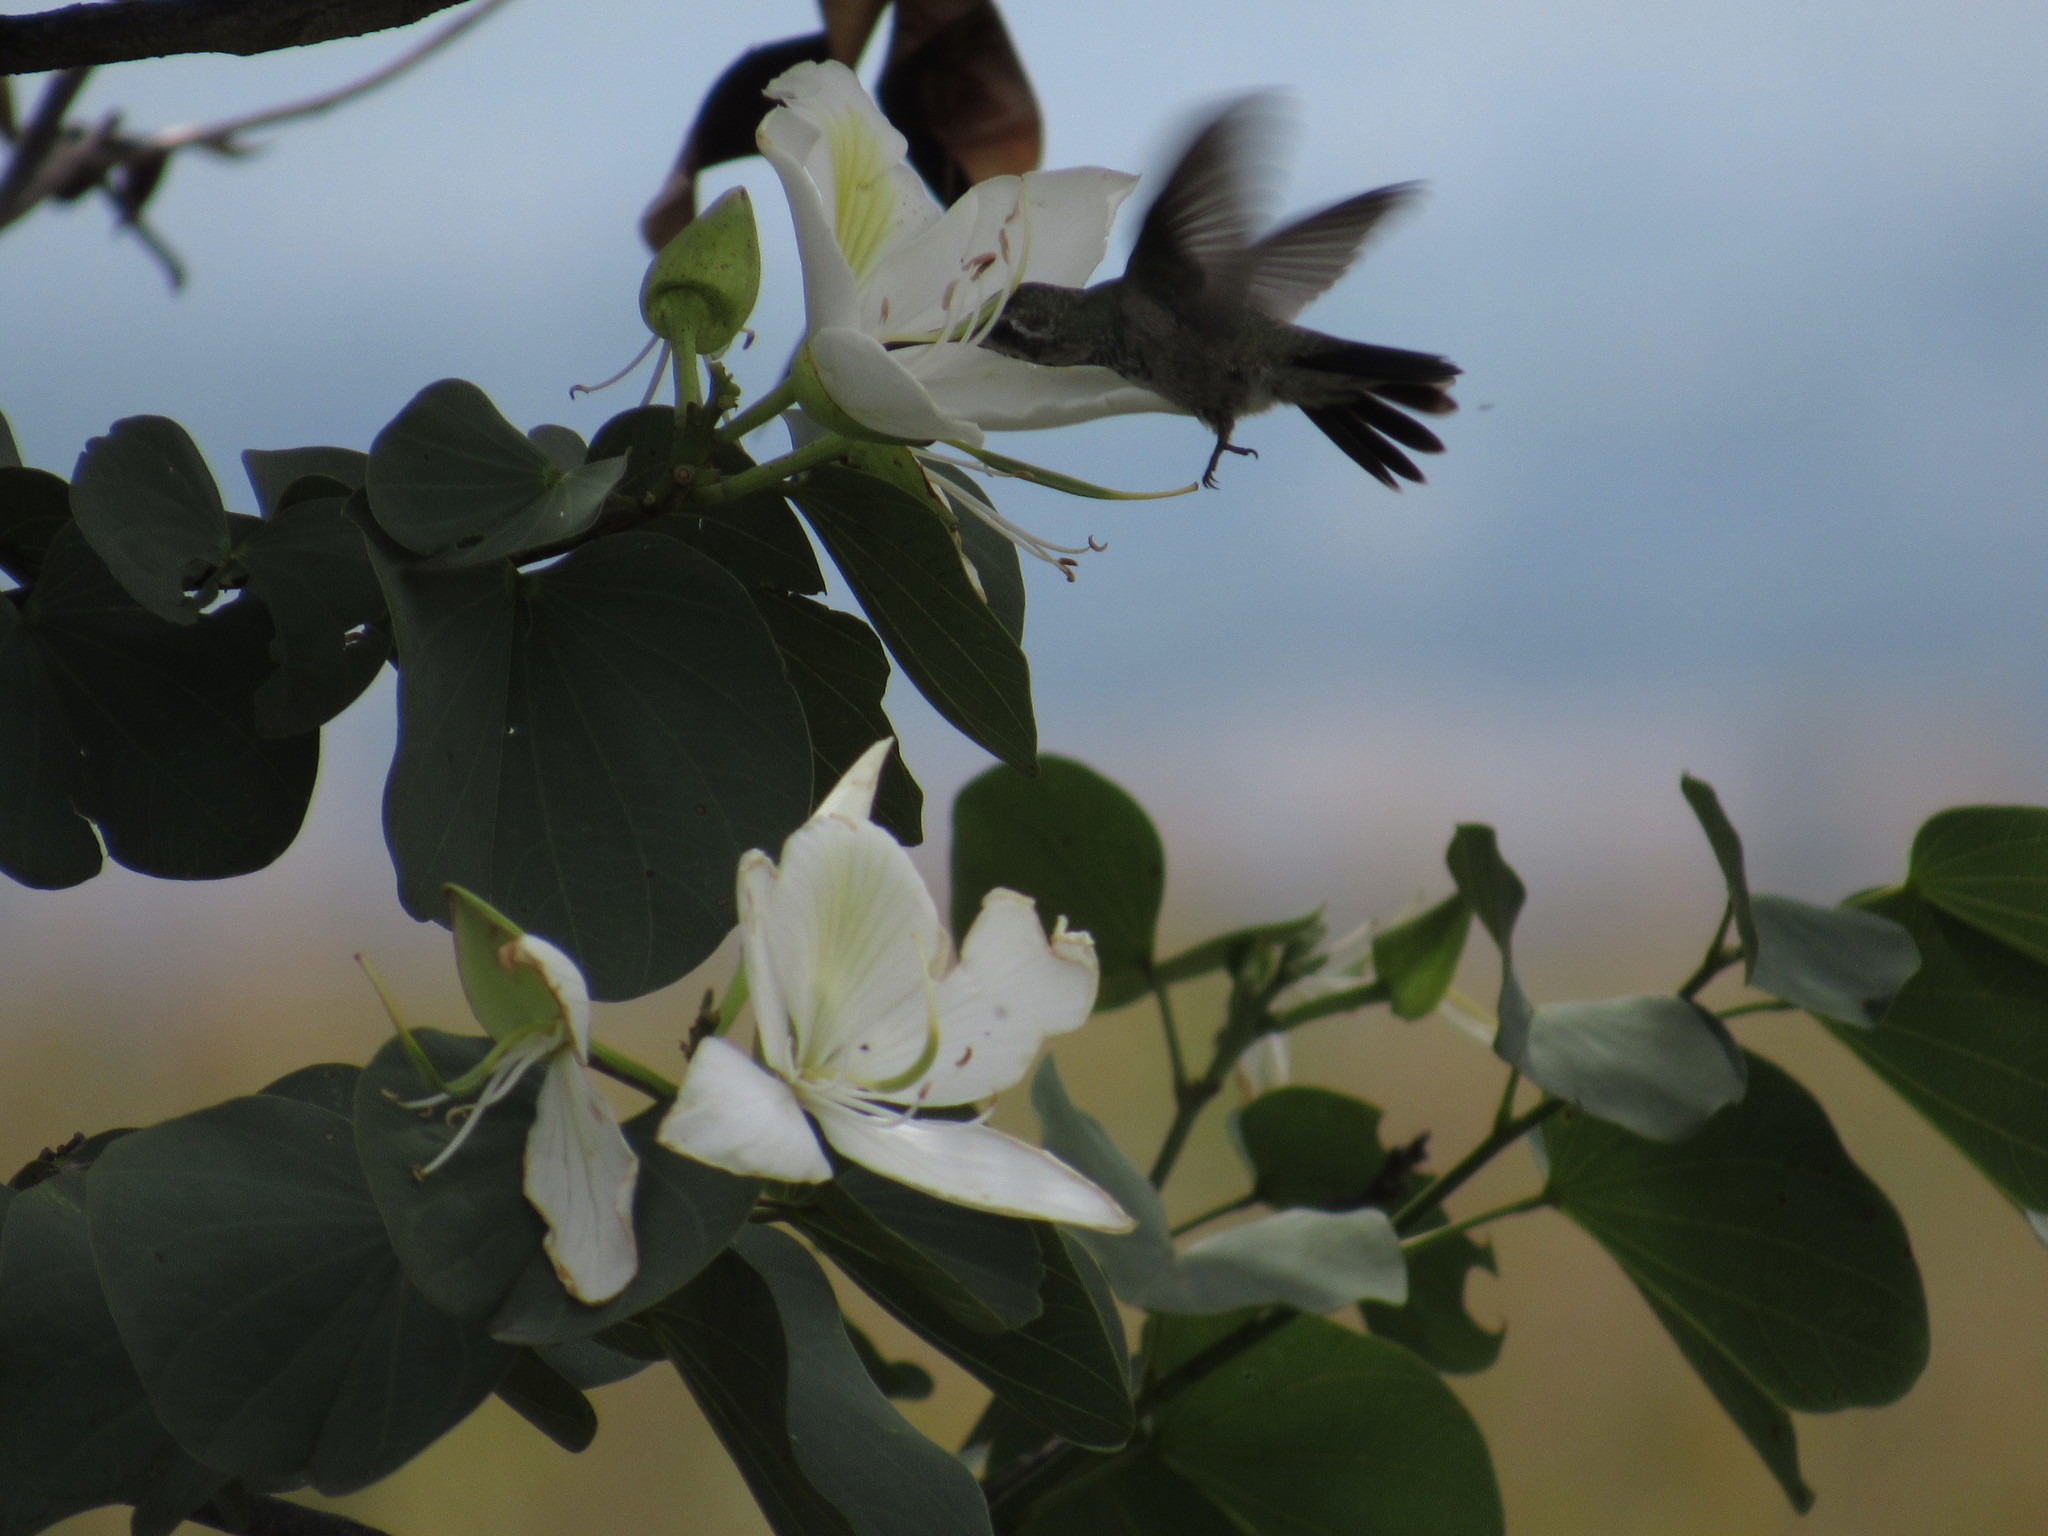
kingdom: Animalia
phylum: Chordata
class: Aves
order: Apodiformes
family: Trochilidae
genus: Cynanthus
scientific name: Cynanthus latirostris
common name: Broad-billed hummingbird
